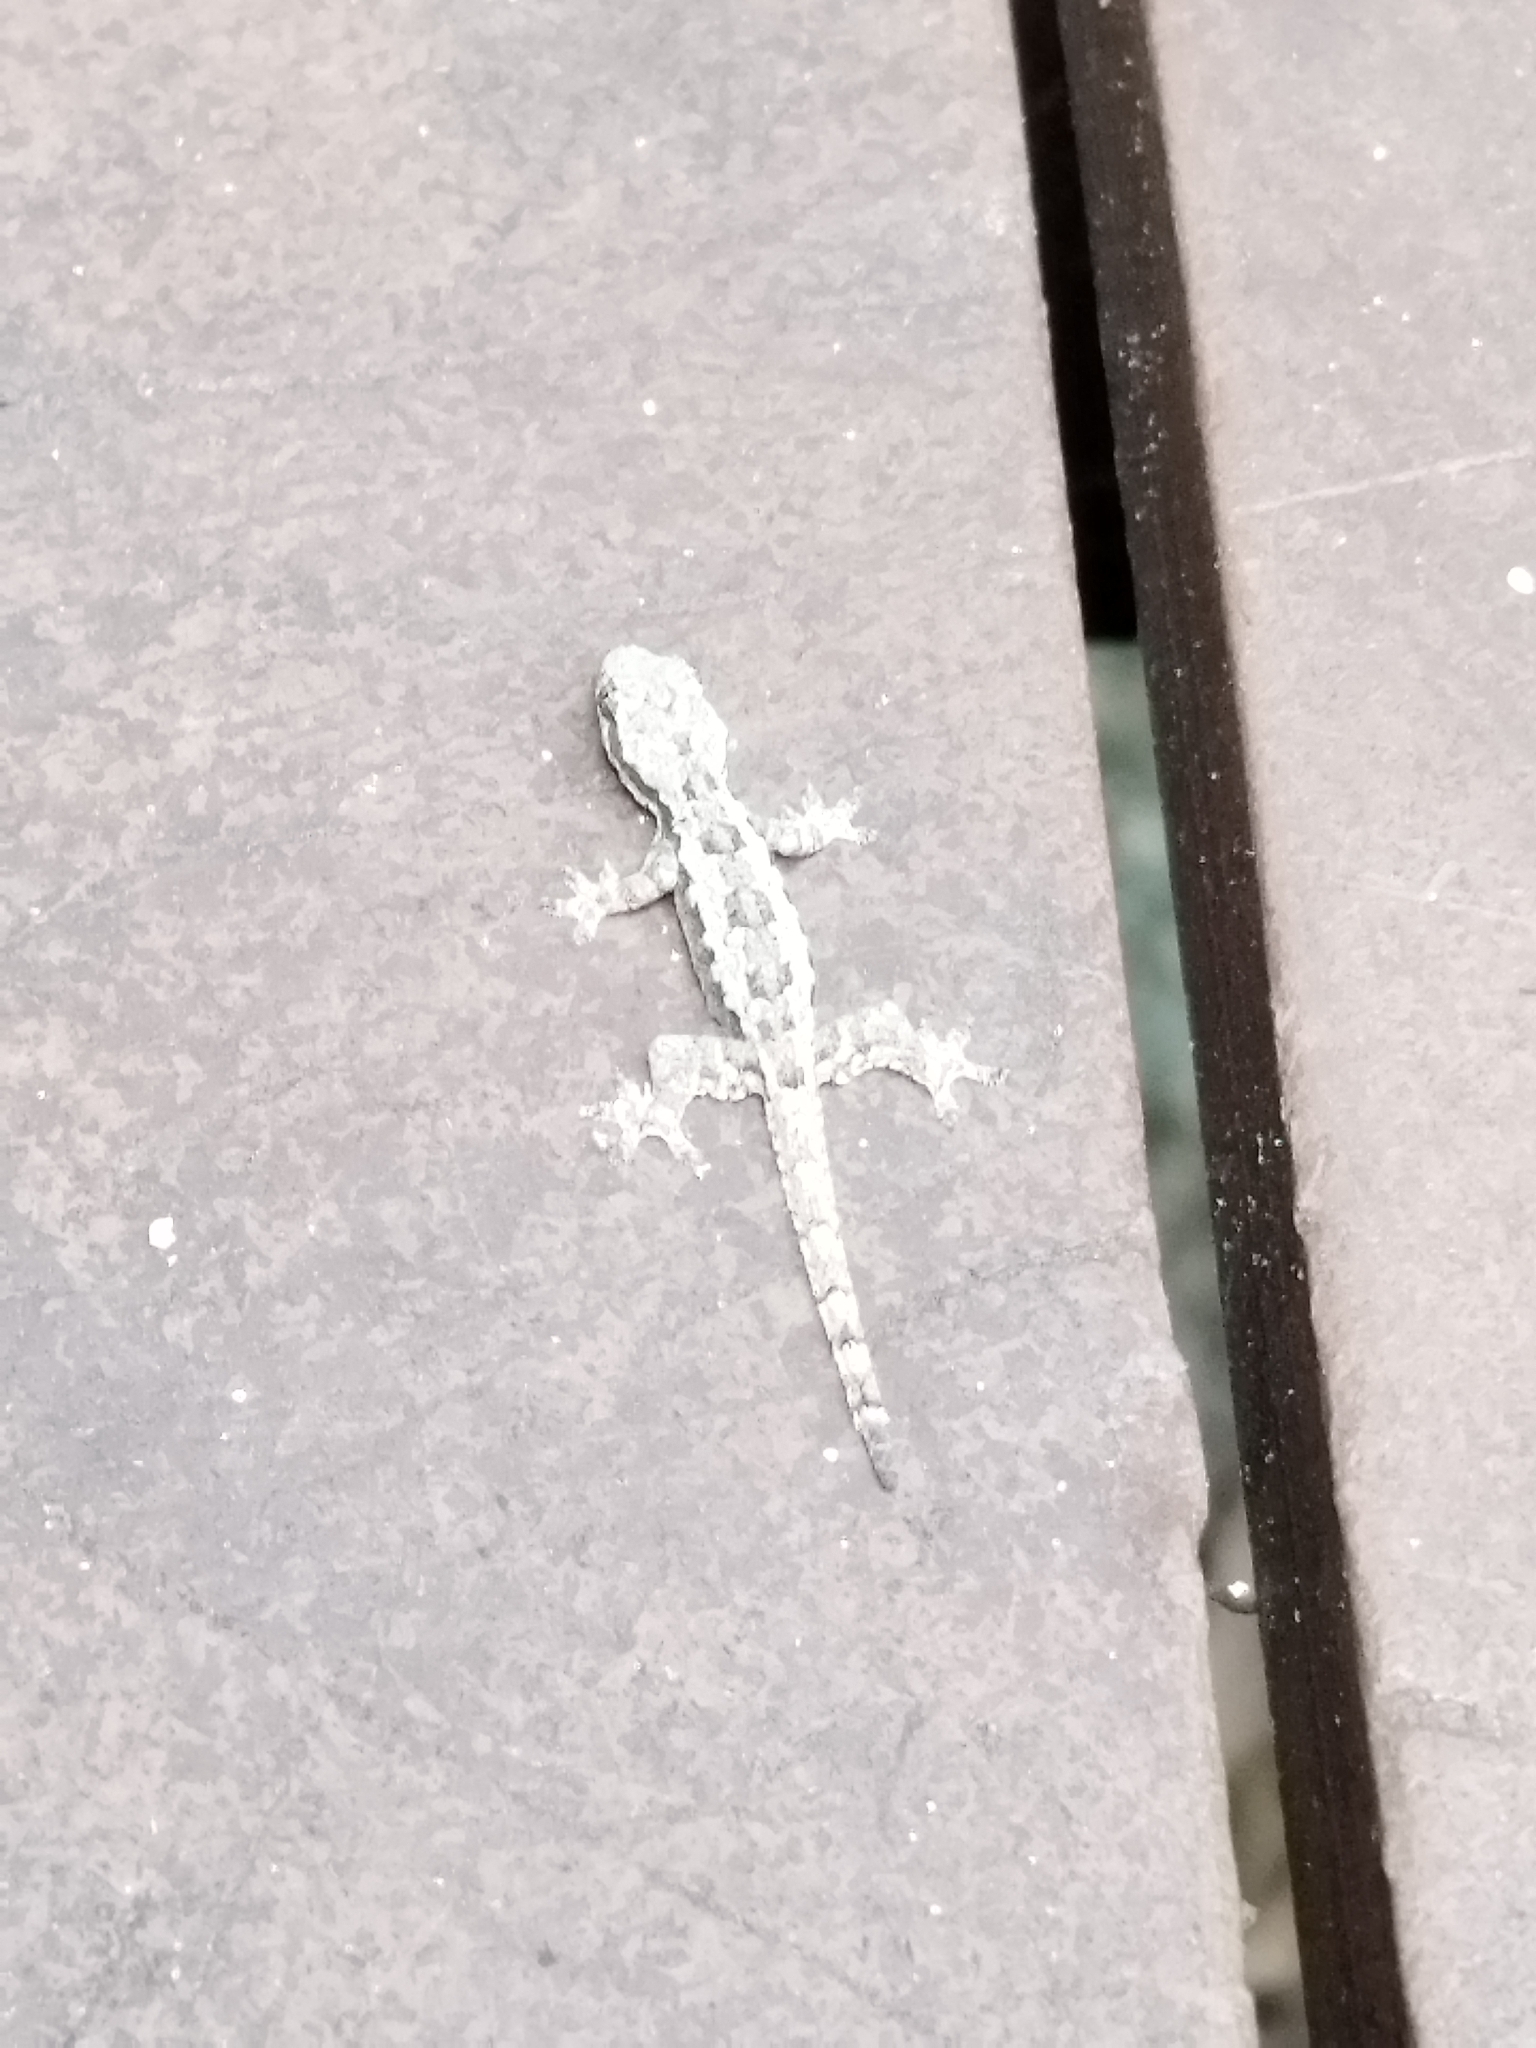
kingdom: Animalia
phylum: Chordata
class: Squamata
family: Gekkonidae
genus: Hemidactylus
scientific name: Hemidactylus platyurus
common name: Flat-tailed house gecko
